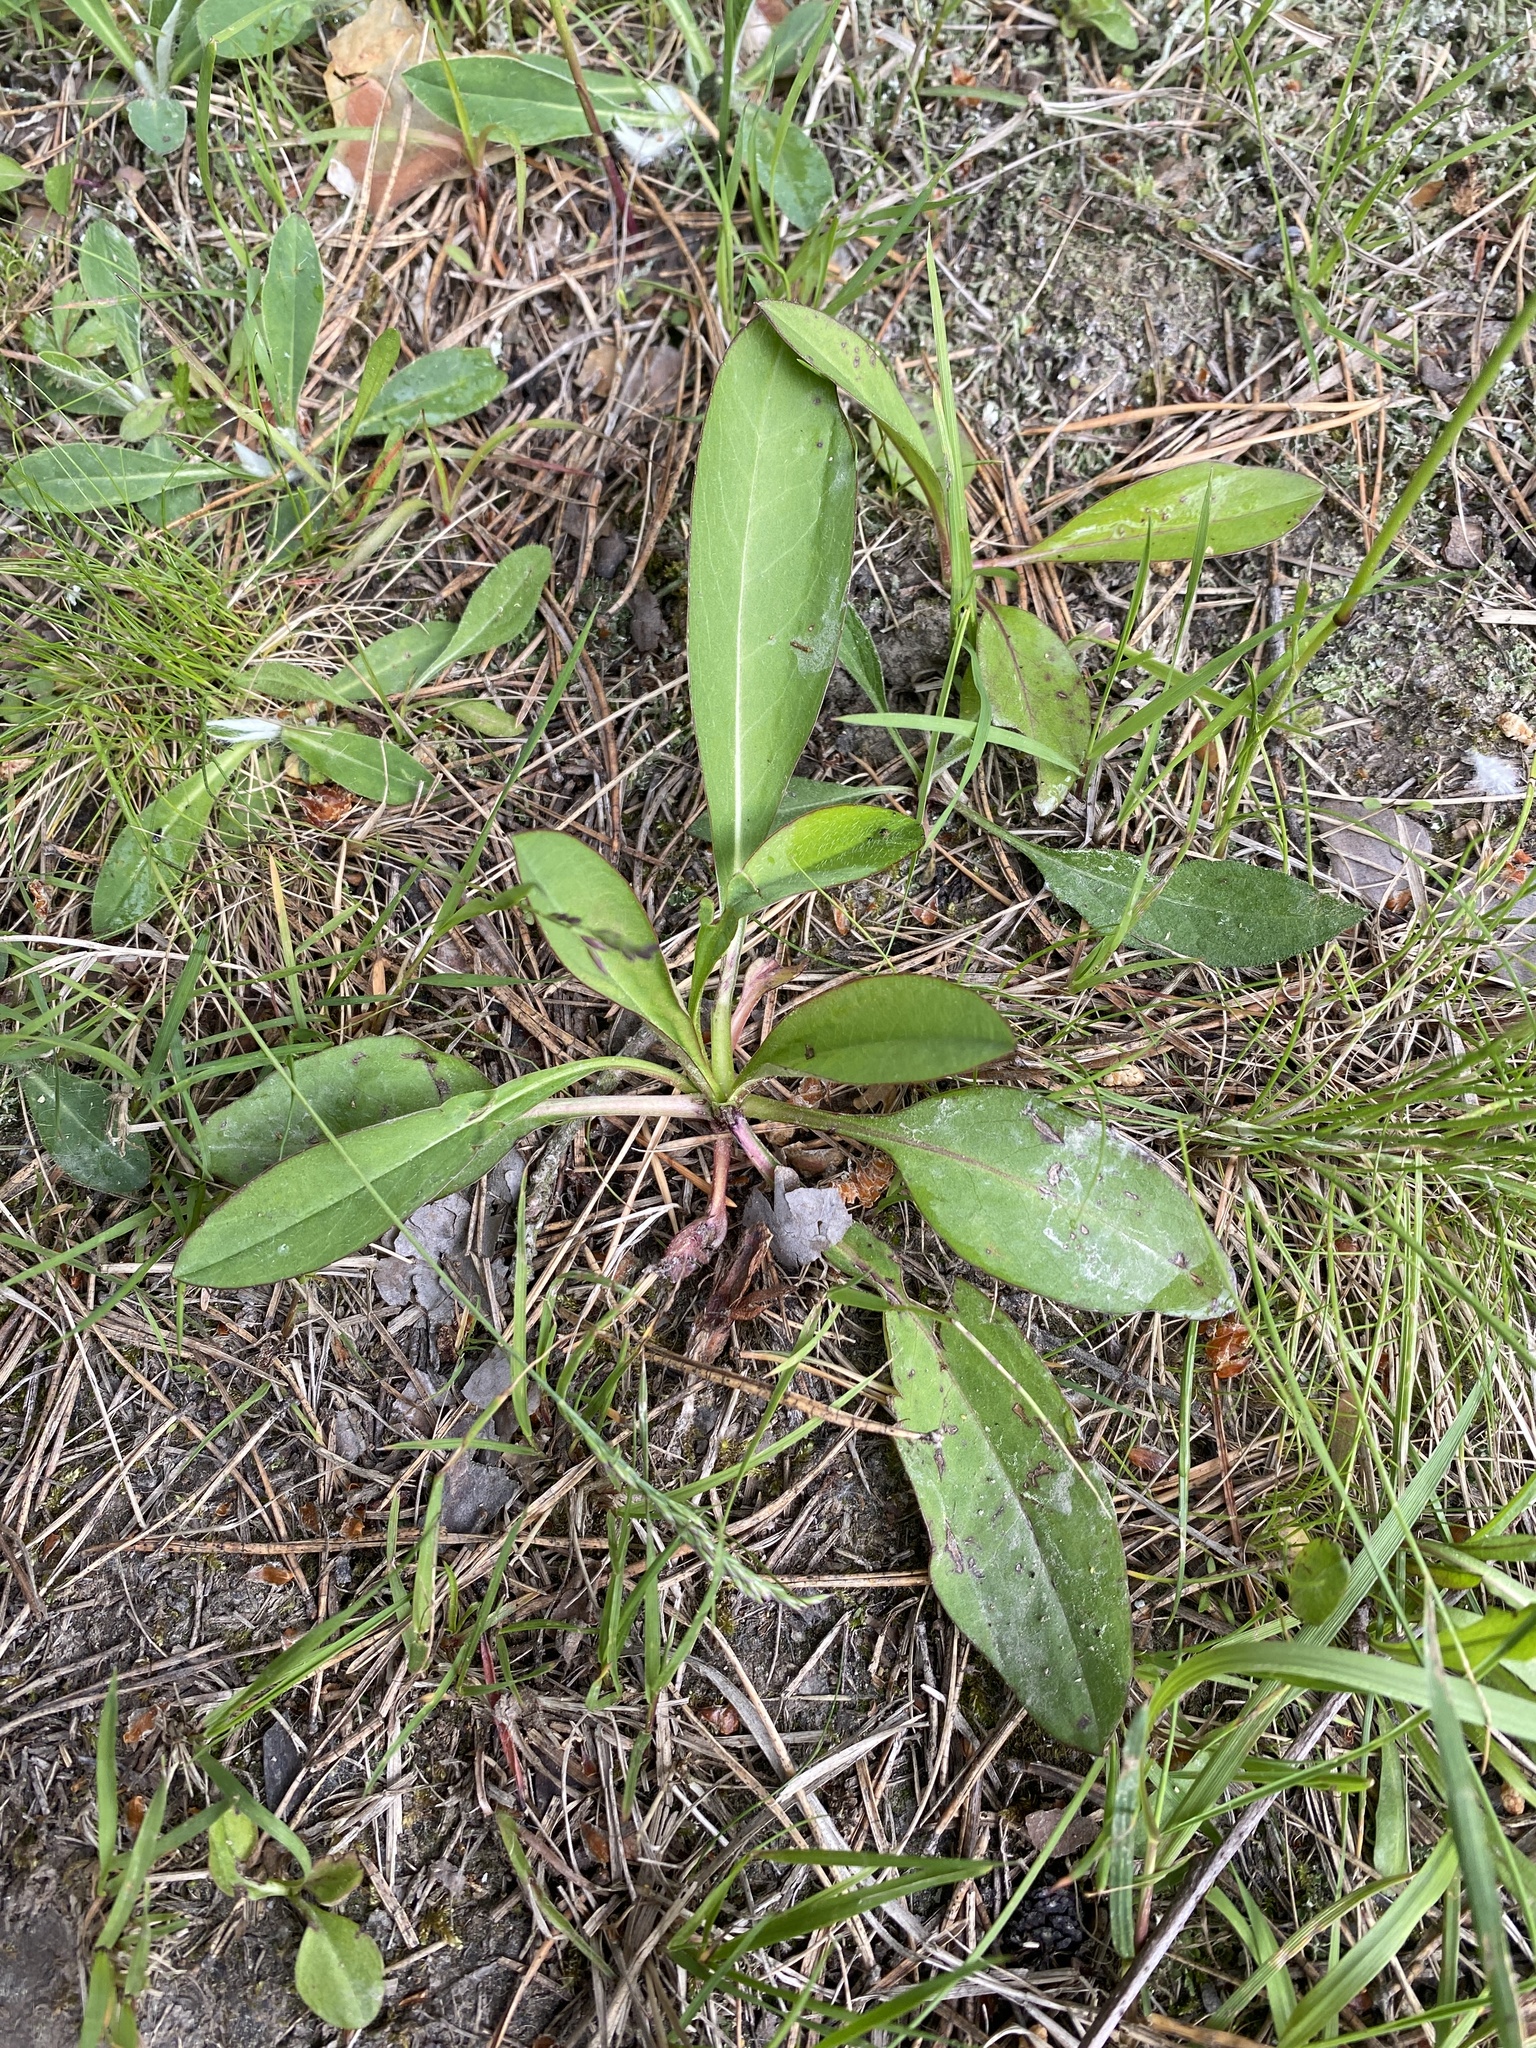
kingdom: Plantae
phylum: Tracheophyta
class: Magnoliopsida
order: Dipsacales
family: Caprifoliaceae
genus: Succisa
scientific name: Succisa pratensis
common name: Devil's-bit
